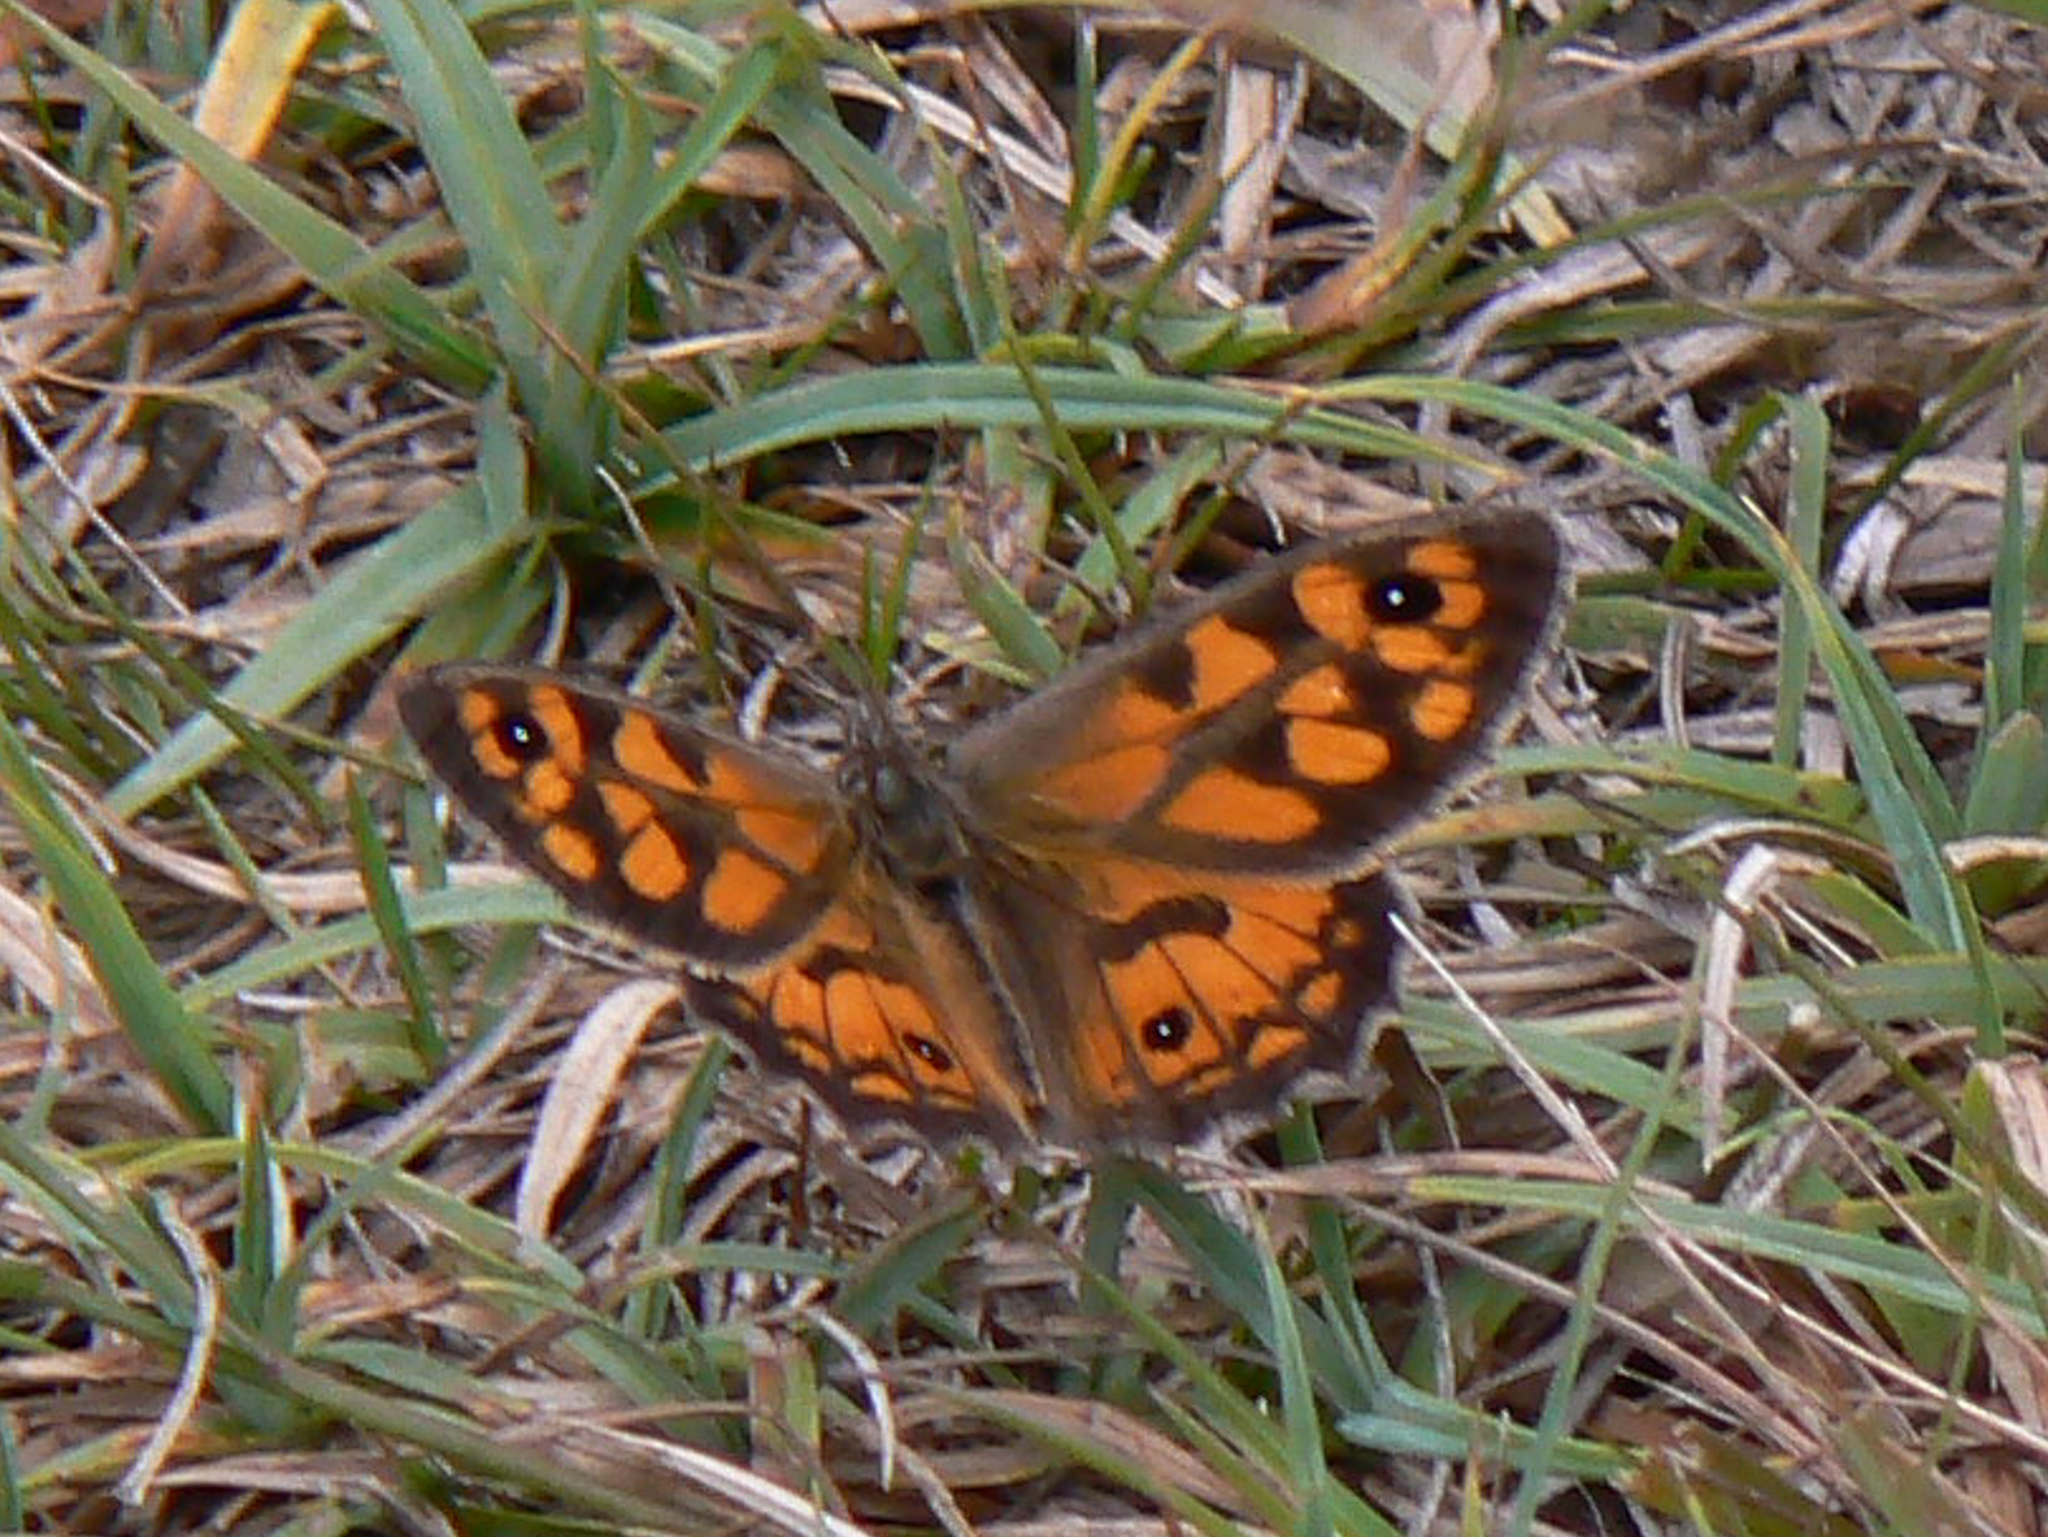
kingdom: Animalia
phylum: Arthropoda
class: Insecta
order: Lepidoptera
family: Nymphalidae
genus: Geitoneura
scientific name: Geitoneura klugii
